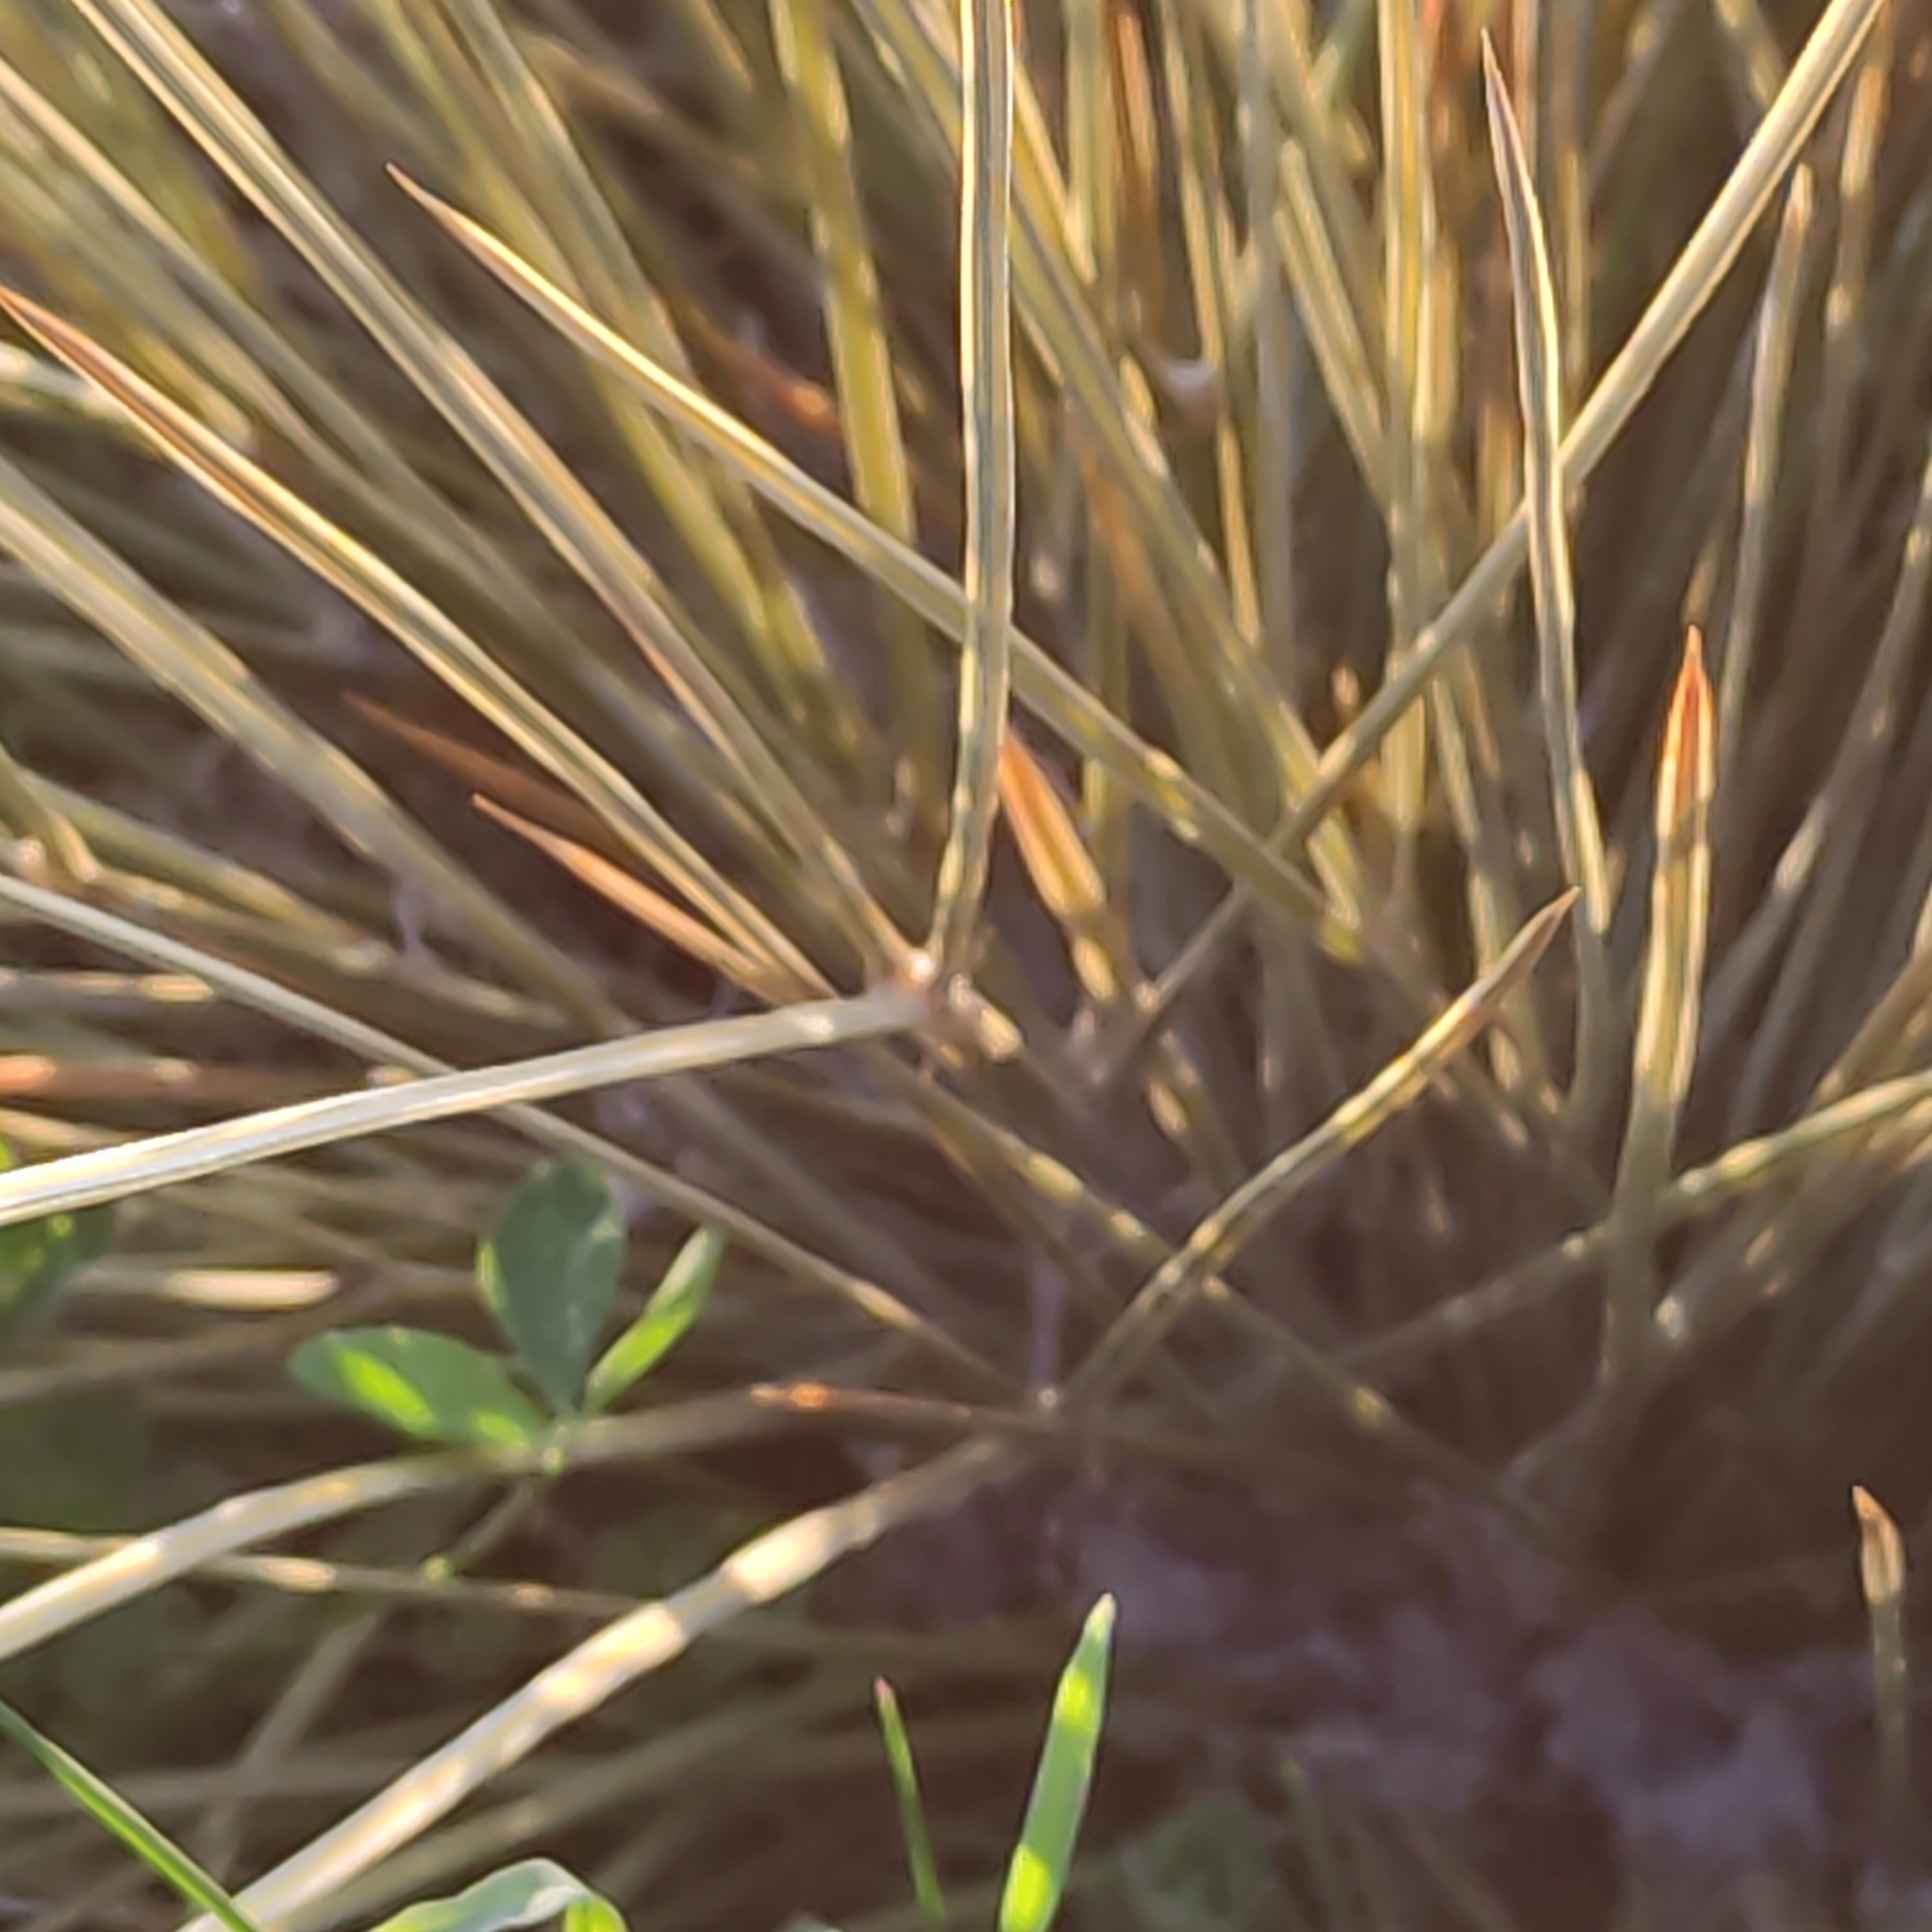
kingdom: Plantae
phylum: Tracheophyta
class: Magnoliopsida
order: Apiales
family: Apiaceae
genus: Aciphylla
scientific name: Aciphylla subflabellata
